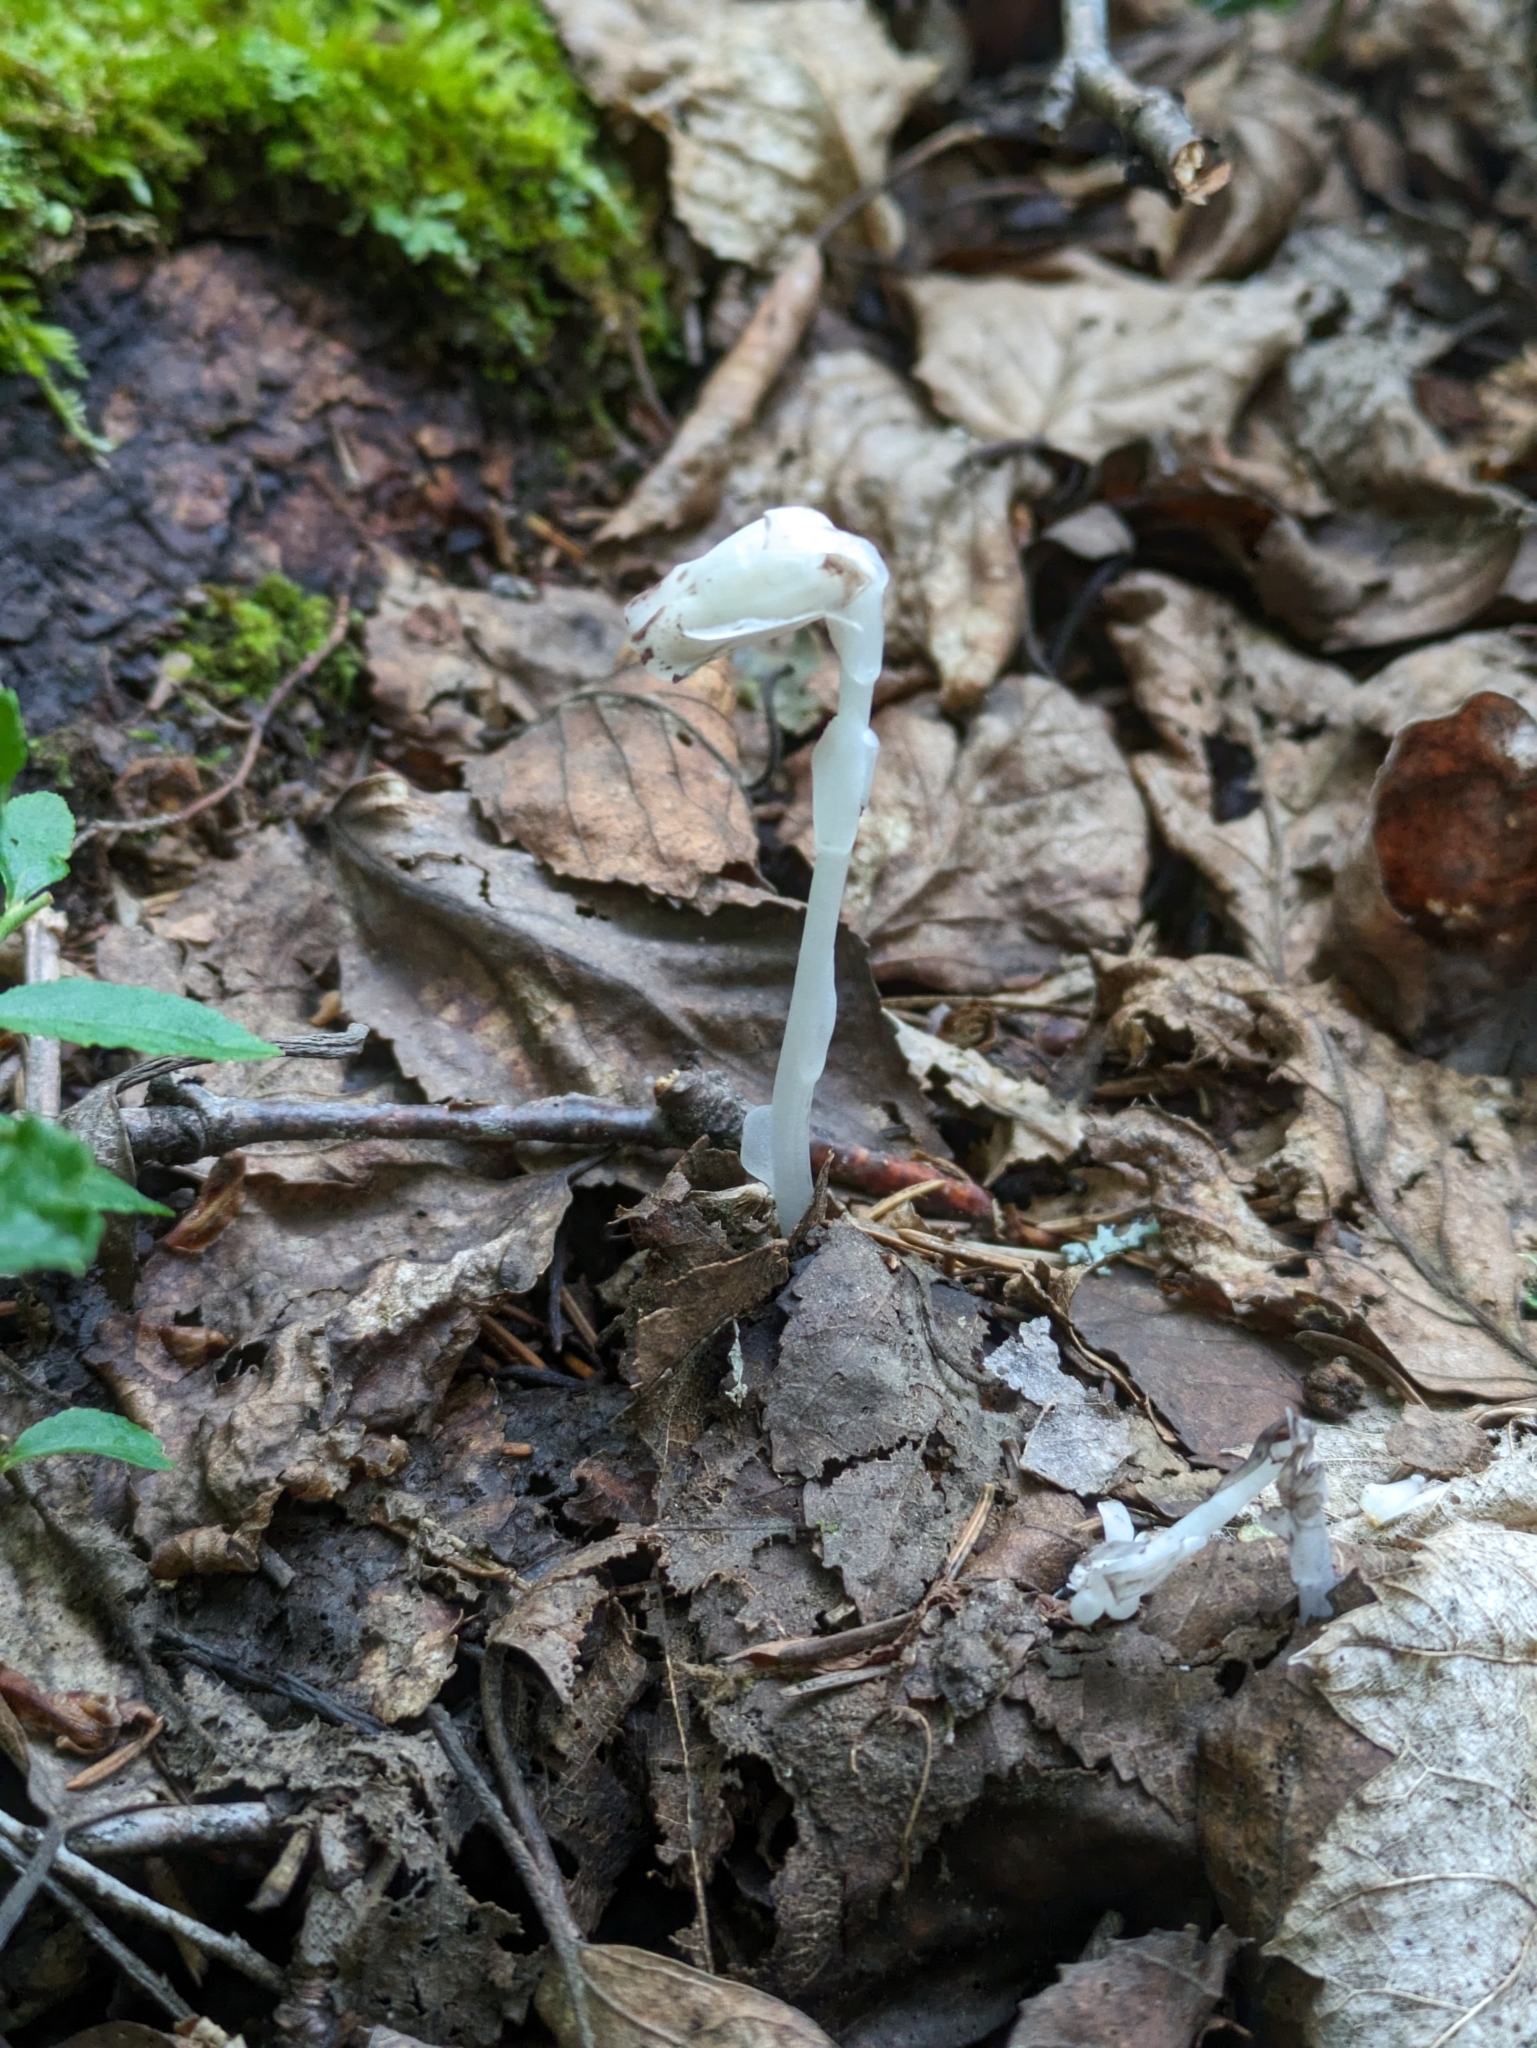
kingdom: Plantae
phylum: Tracheophyta
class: Magnoliopsida
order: Ericales
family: Ericaceae
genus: Monotropa
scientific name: Monotropa uniflora
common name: Convulsion root
